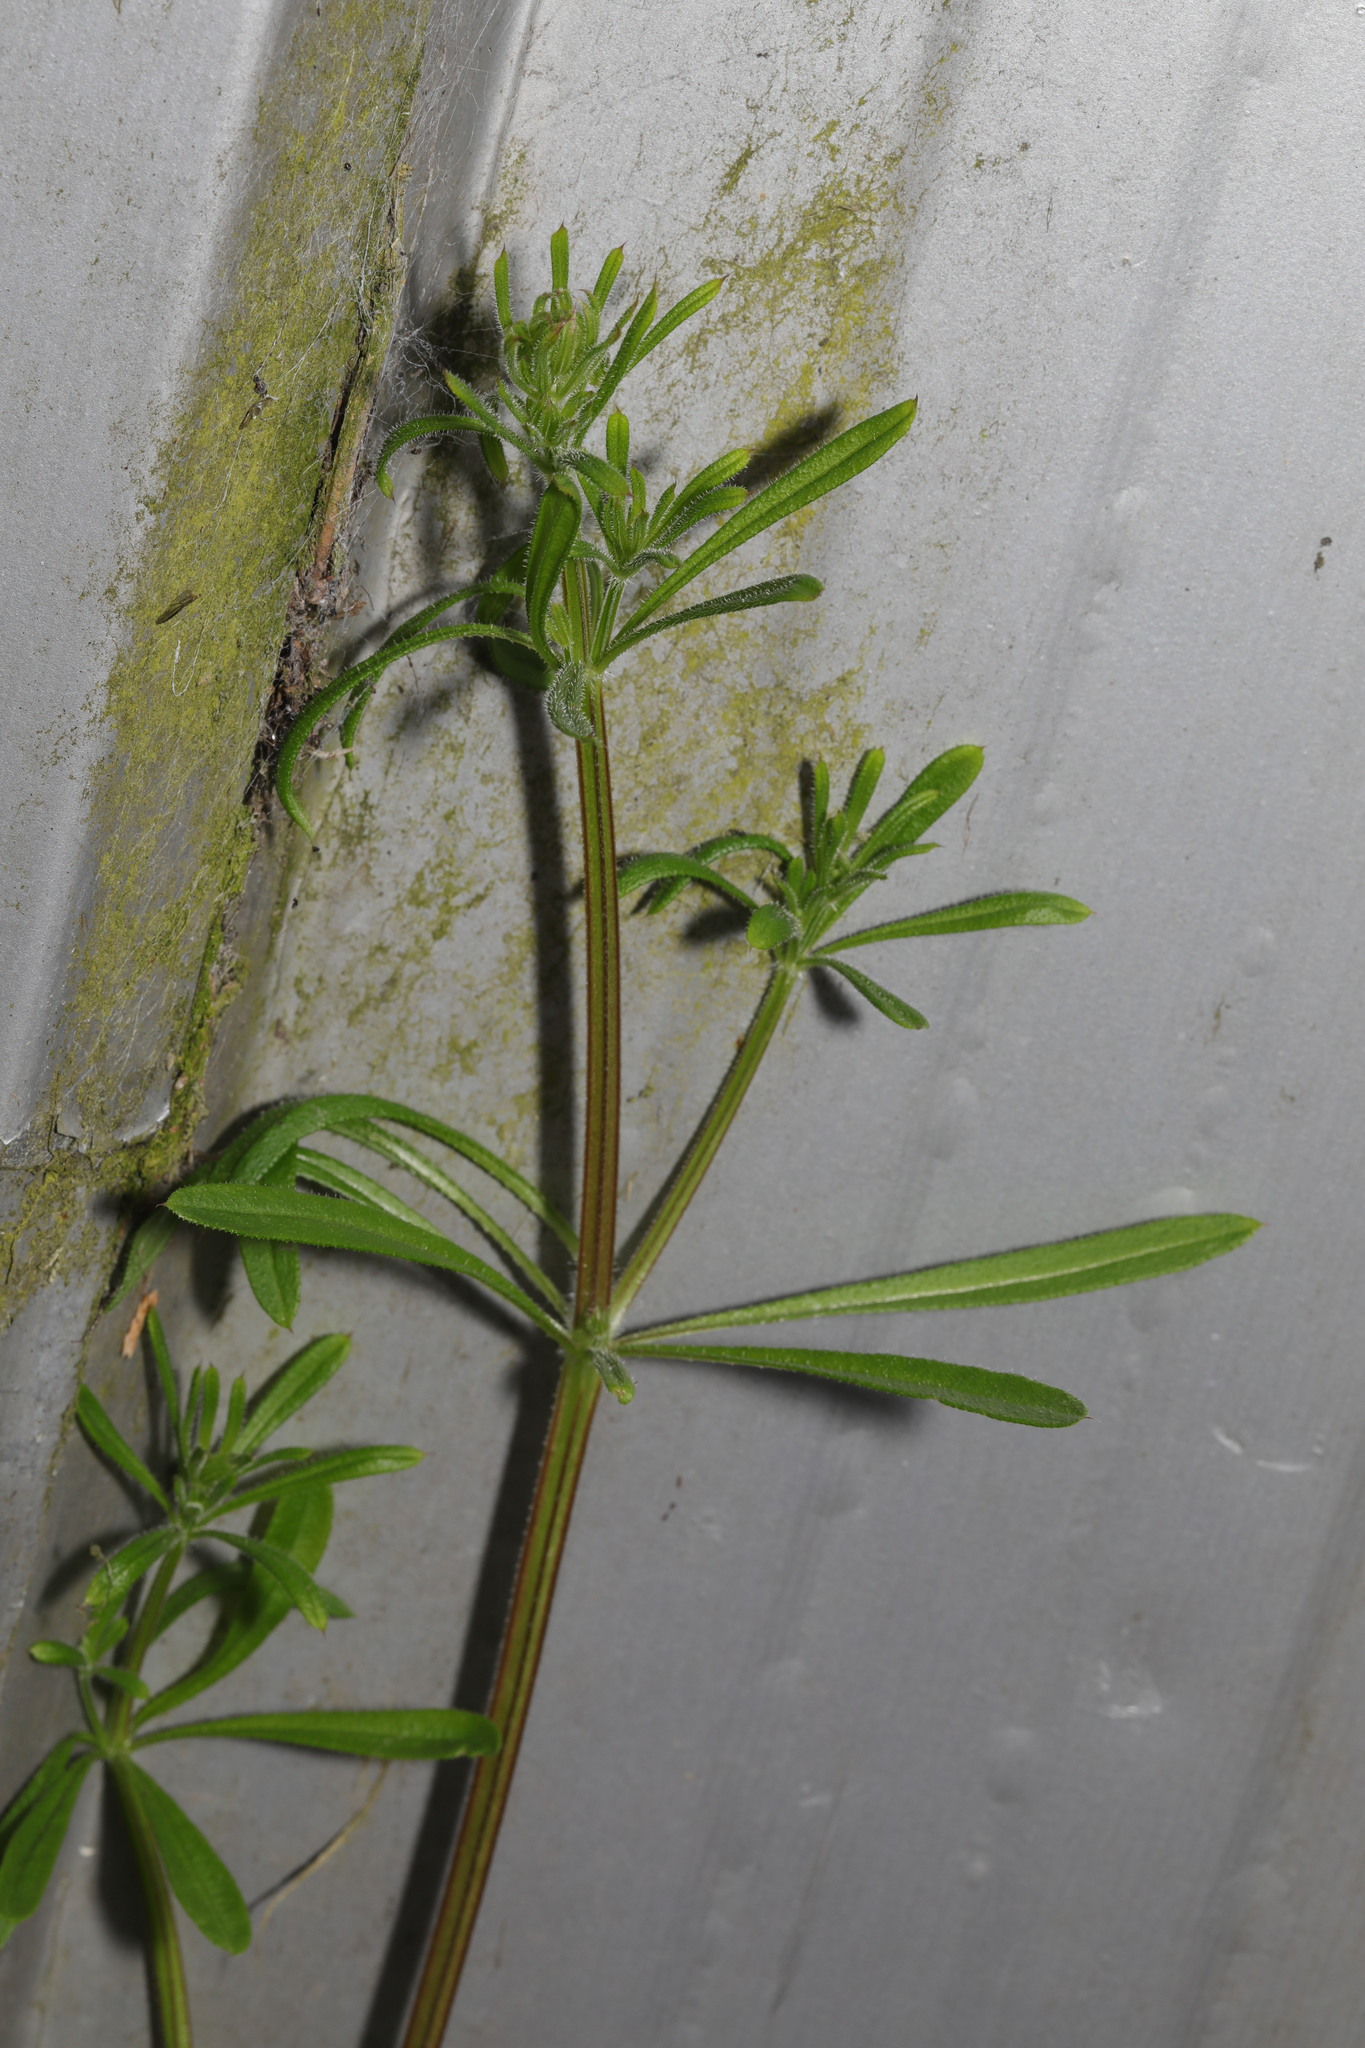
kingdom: Plantae
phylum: Tracheophyta
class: Magnoliopsida
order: Gentianales
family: Rubiaceae
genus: Galium
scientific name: Galium aparine
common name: Cleavers
